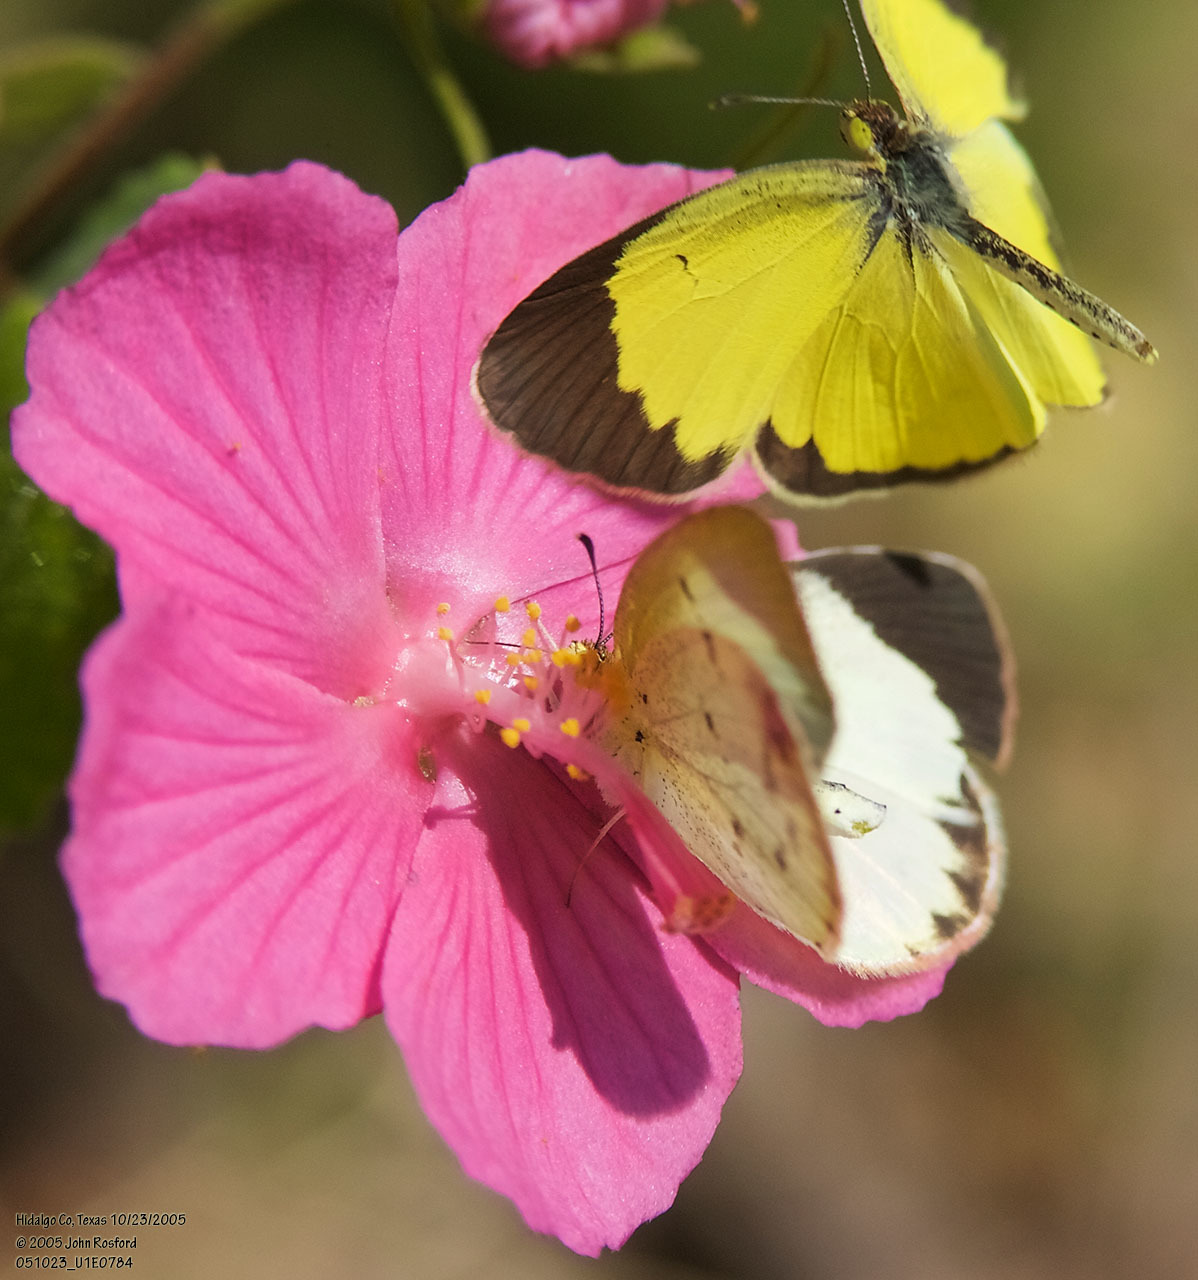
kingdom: Animalia
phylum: Arthropoda
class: Insecta
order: Lepidoptera
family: Pieridae
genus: Pyrisitia
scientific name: Pyrisitia lisa
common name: Little yellow
